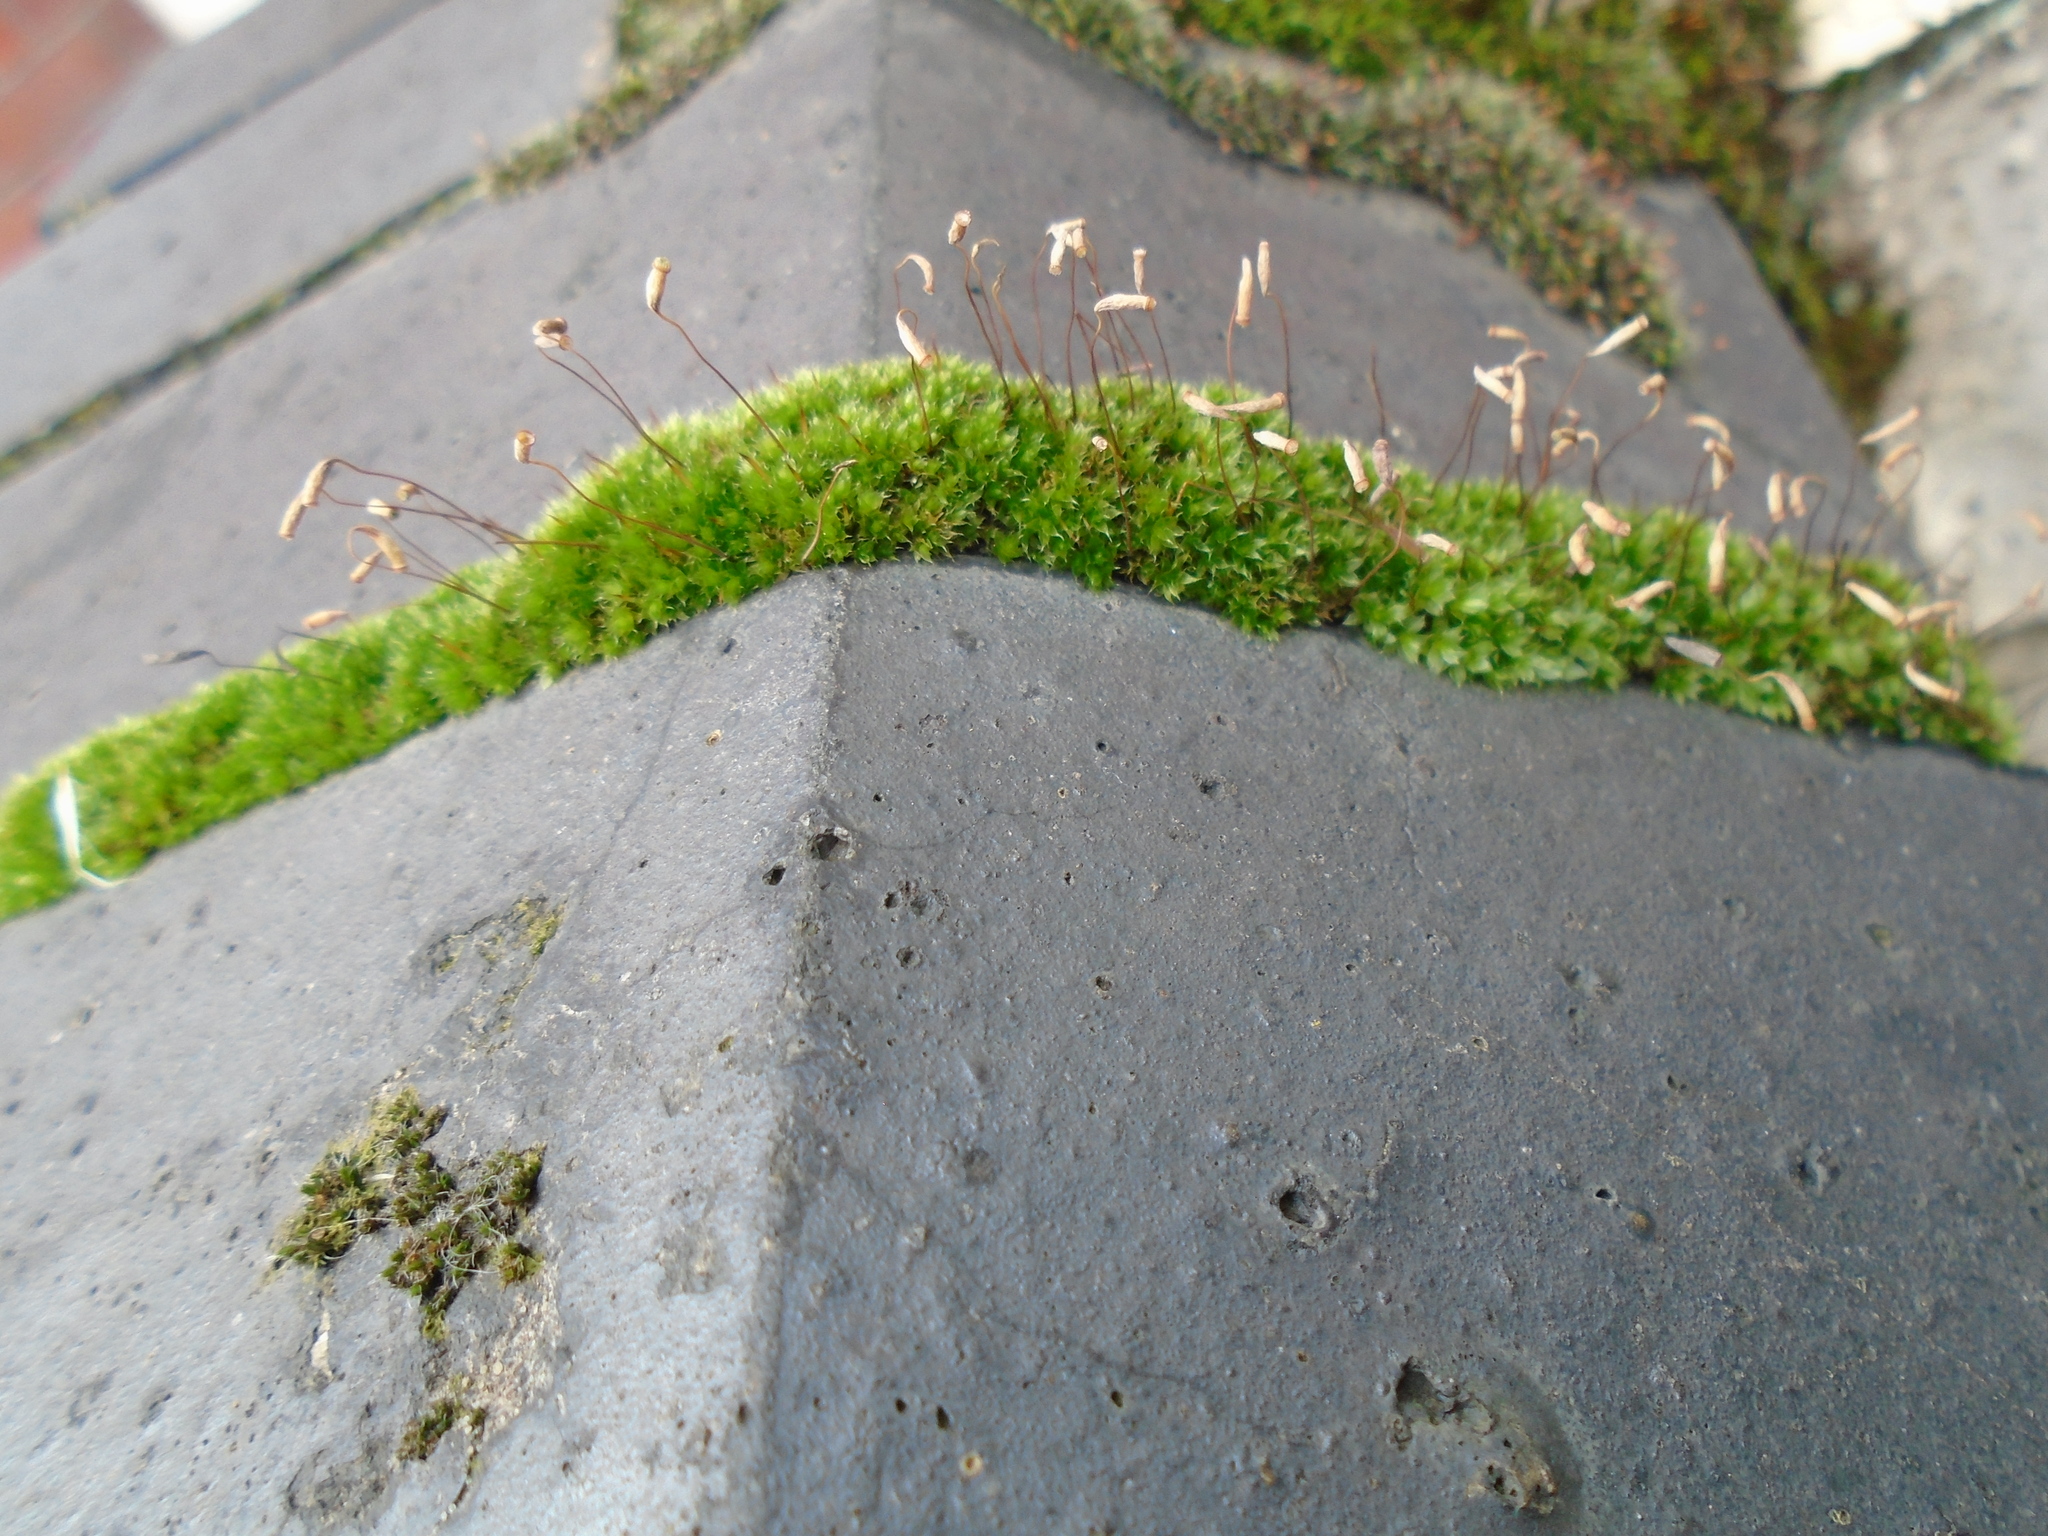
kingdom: Plantae
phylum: Bryophyta
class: Bryopsida
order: Bryales
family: Bryaceae
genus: Rosulabryum
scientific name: Rosulabryum capillare
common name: Capillary thread-moss
